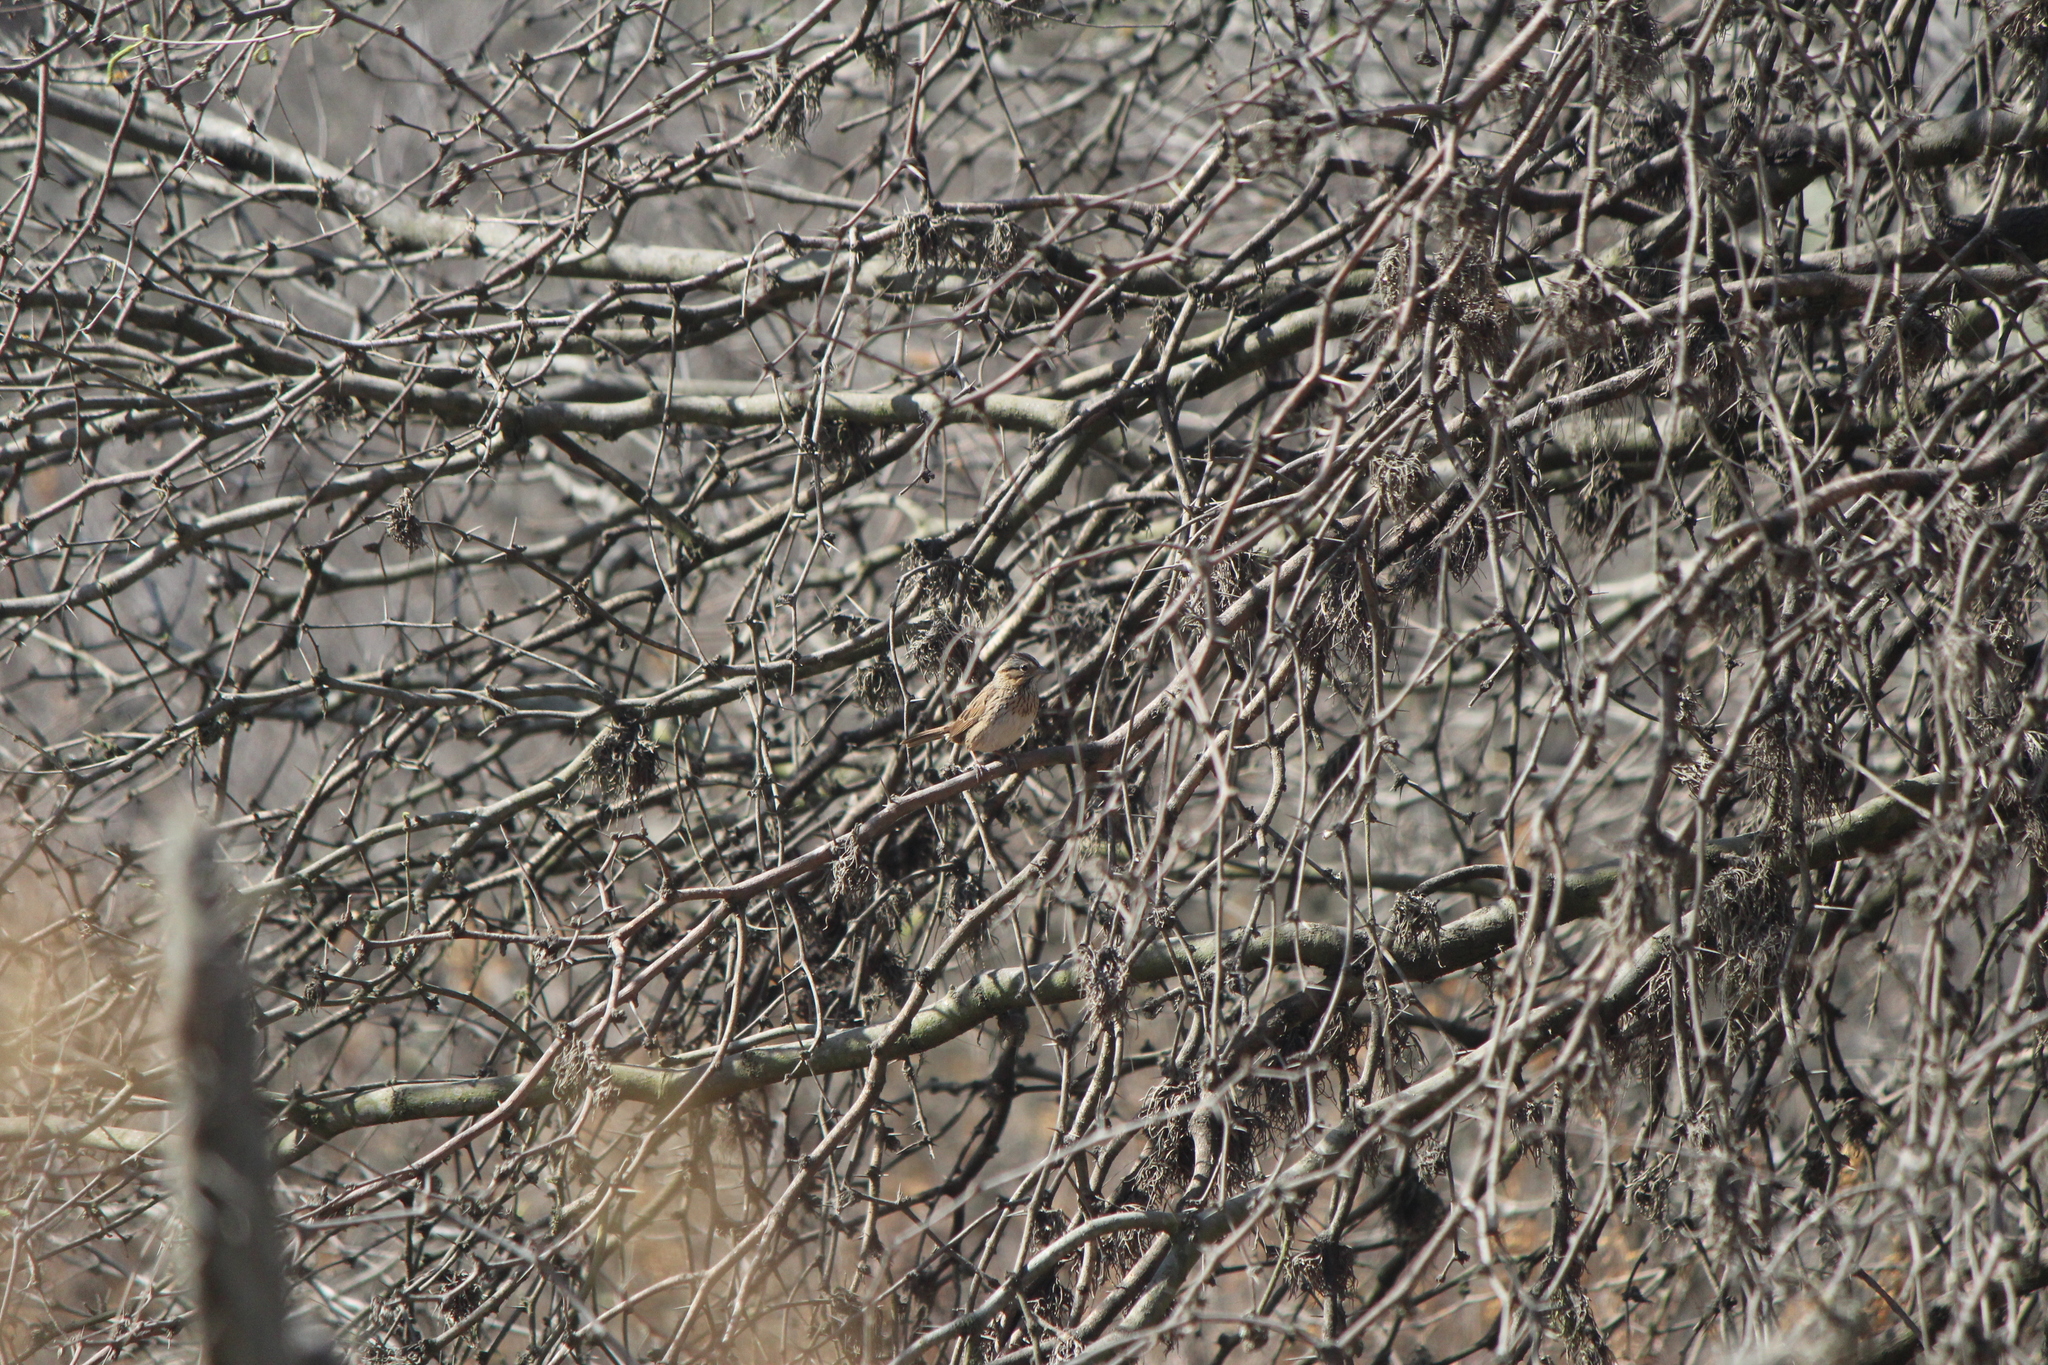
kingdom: Animalia
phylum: Chordata
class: Aves
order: Passeriformes
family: Passerellidae
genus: Melospiza
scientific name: Melospiza lincolnii
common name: Lincoln's sparrow
